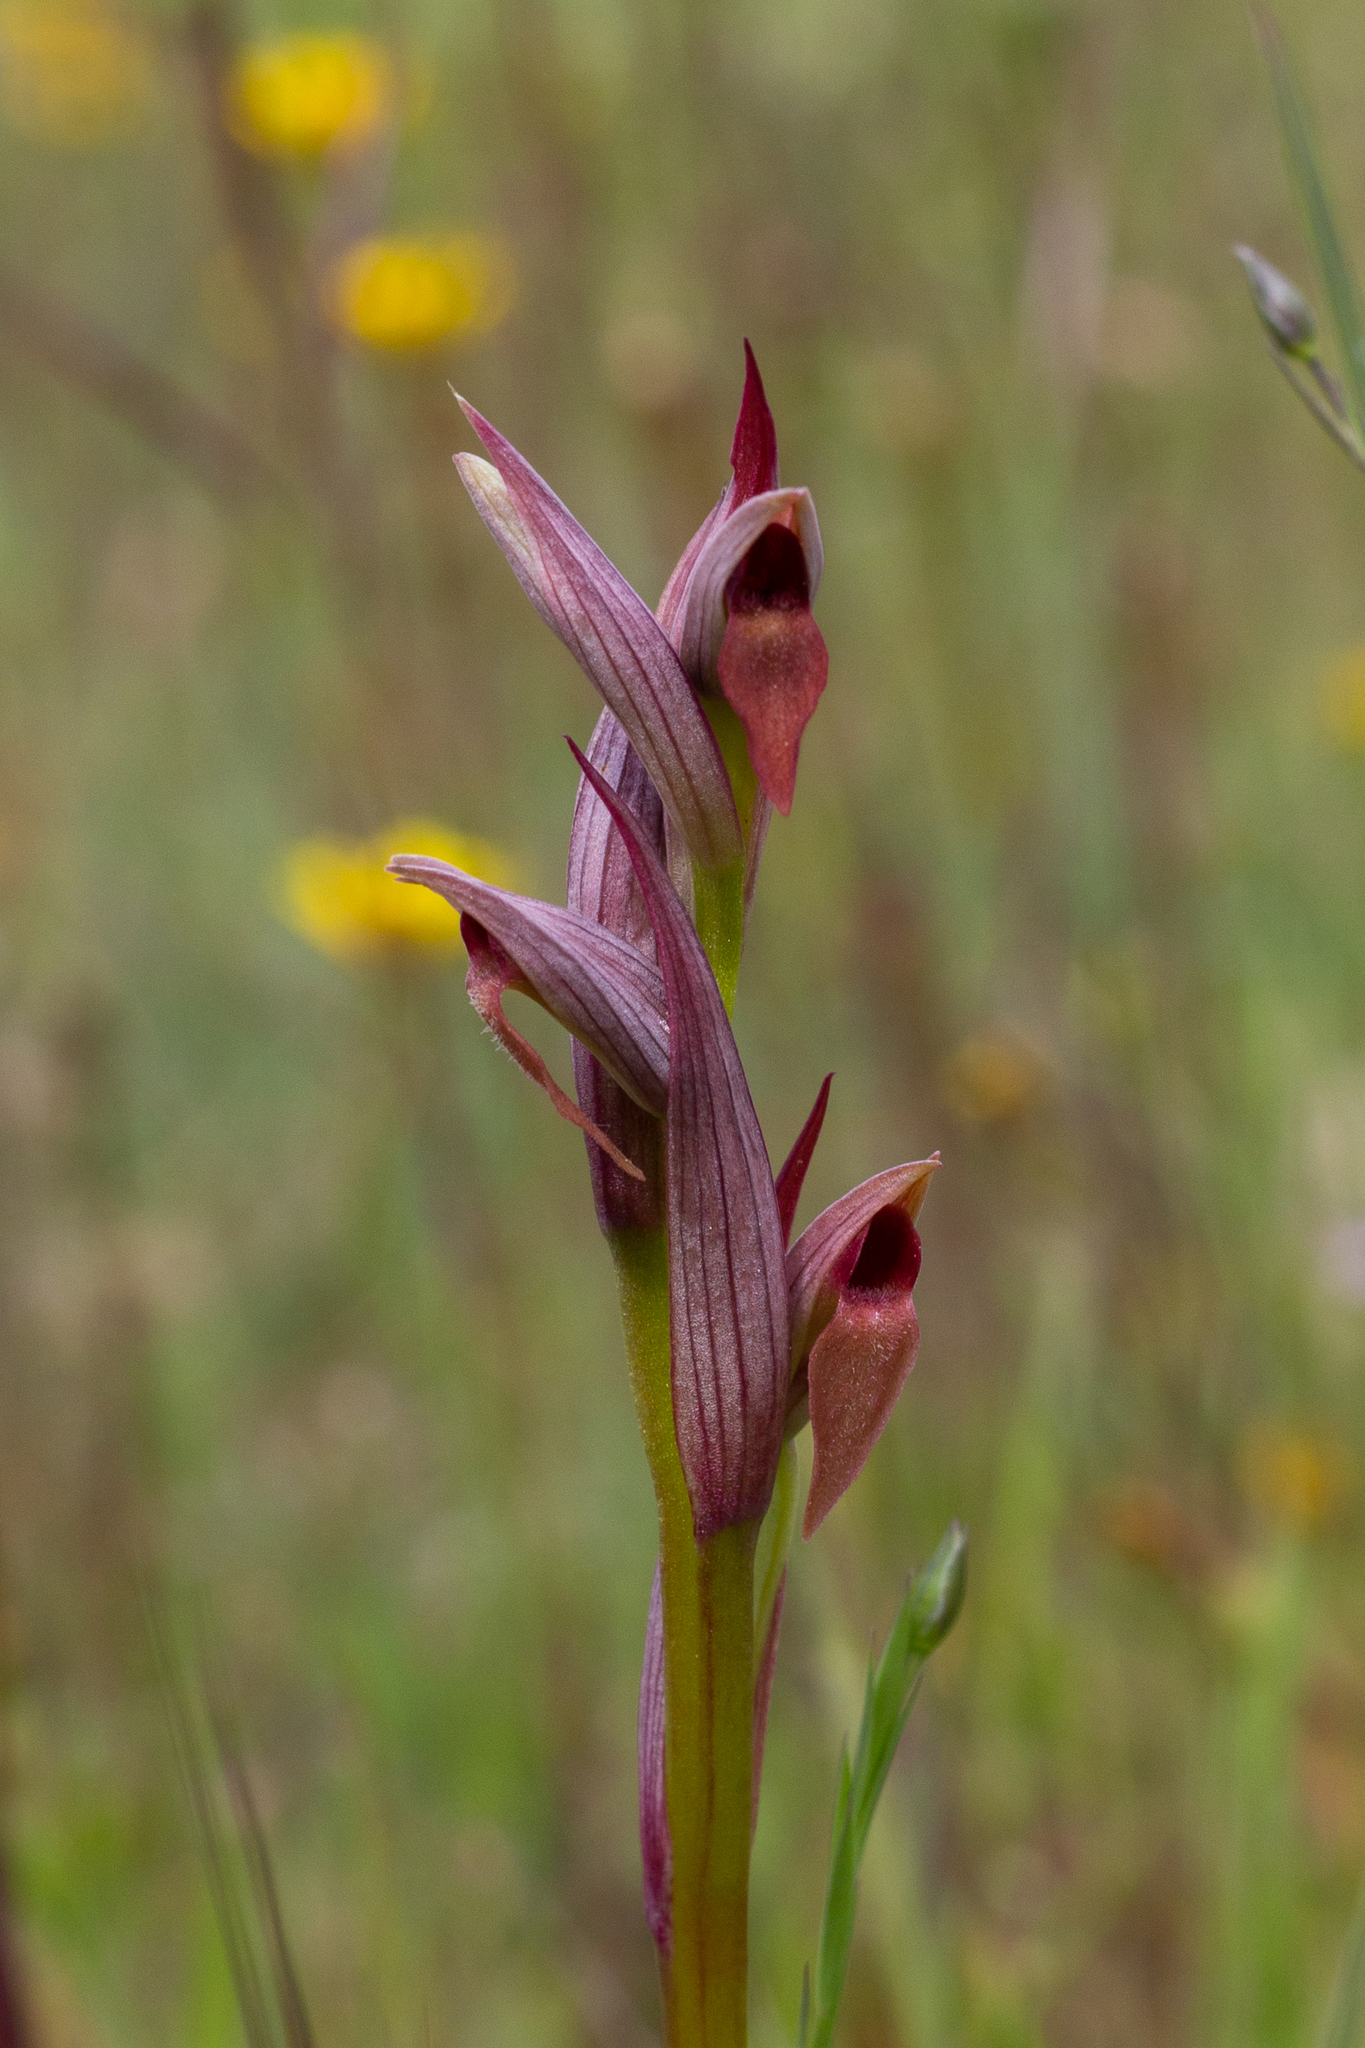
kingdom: Plantae
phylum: Tracheophyta
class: Liliopsida
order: Asparagales
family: Orchidaceae
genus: Serapias
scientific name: Serapias parviflora
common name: Small-flowered tongue-orchid
